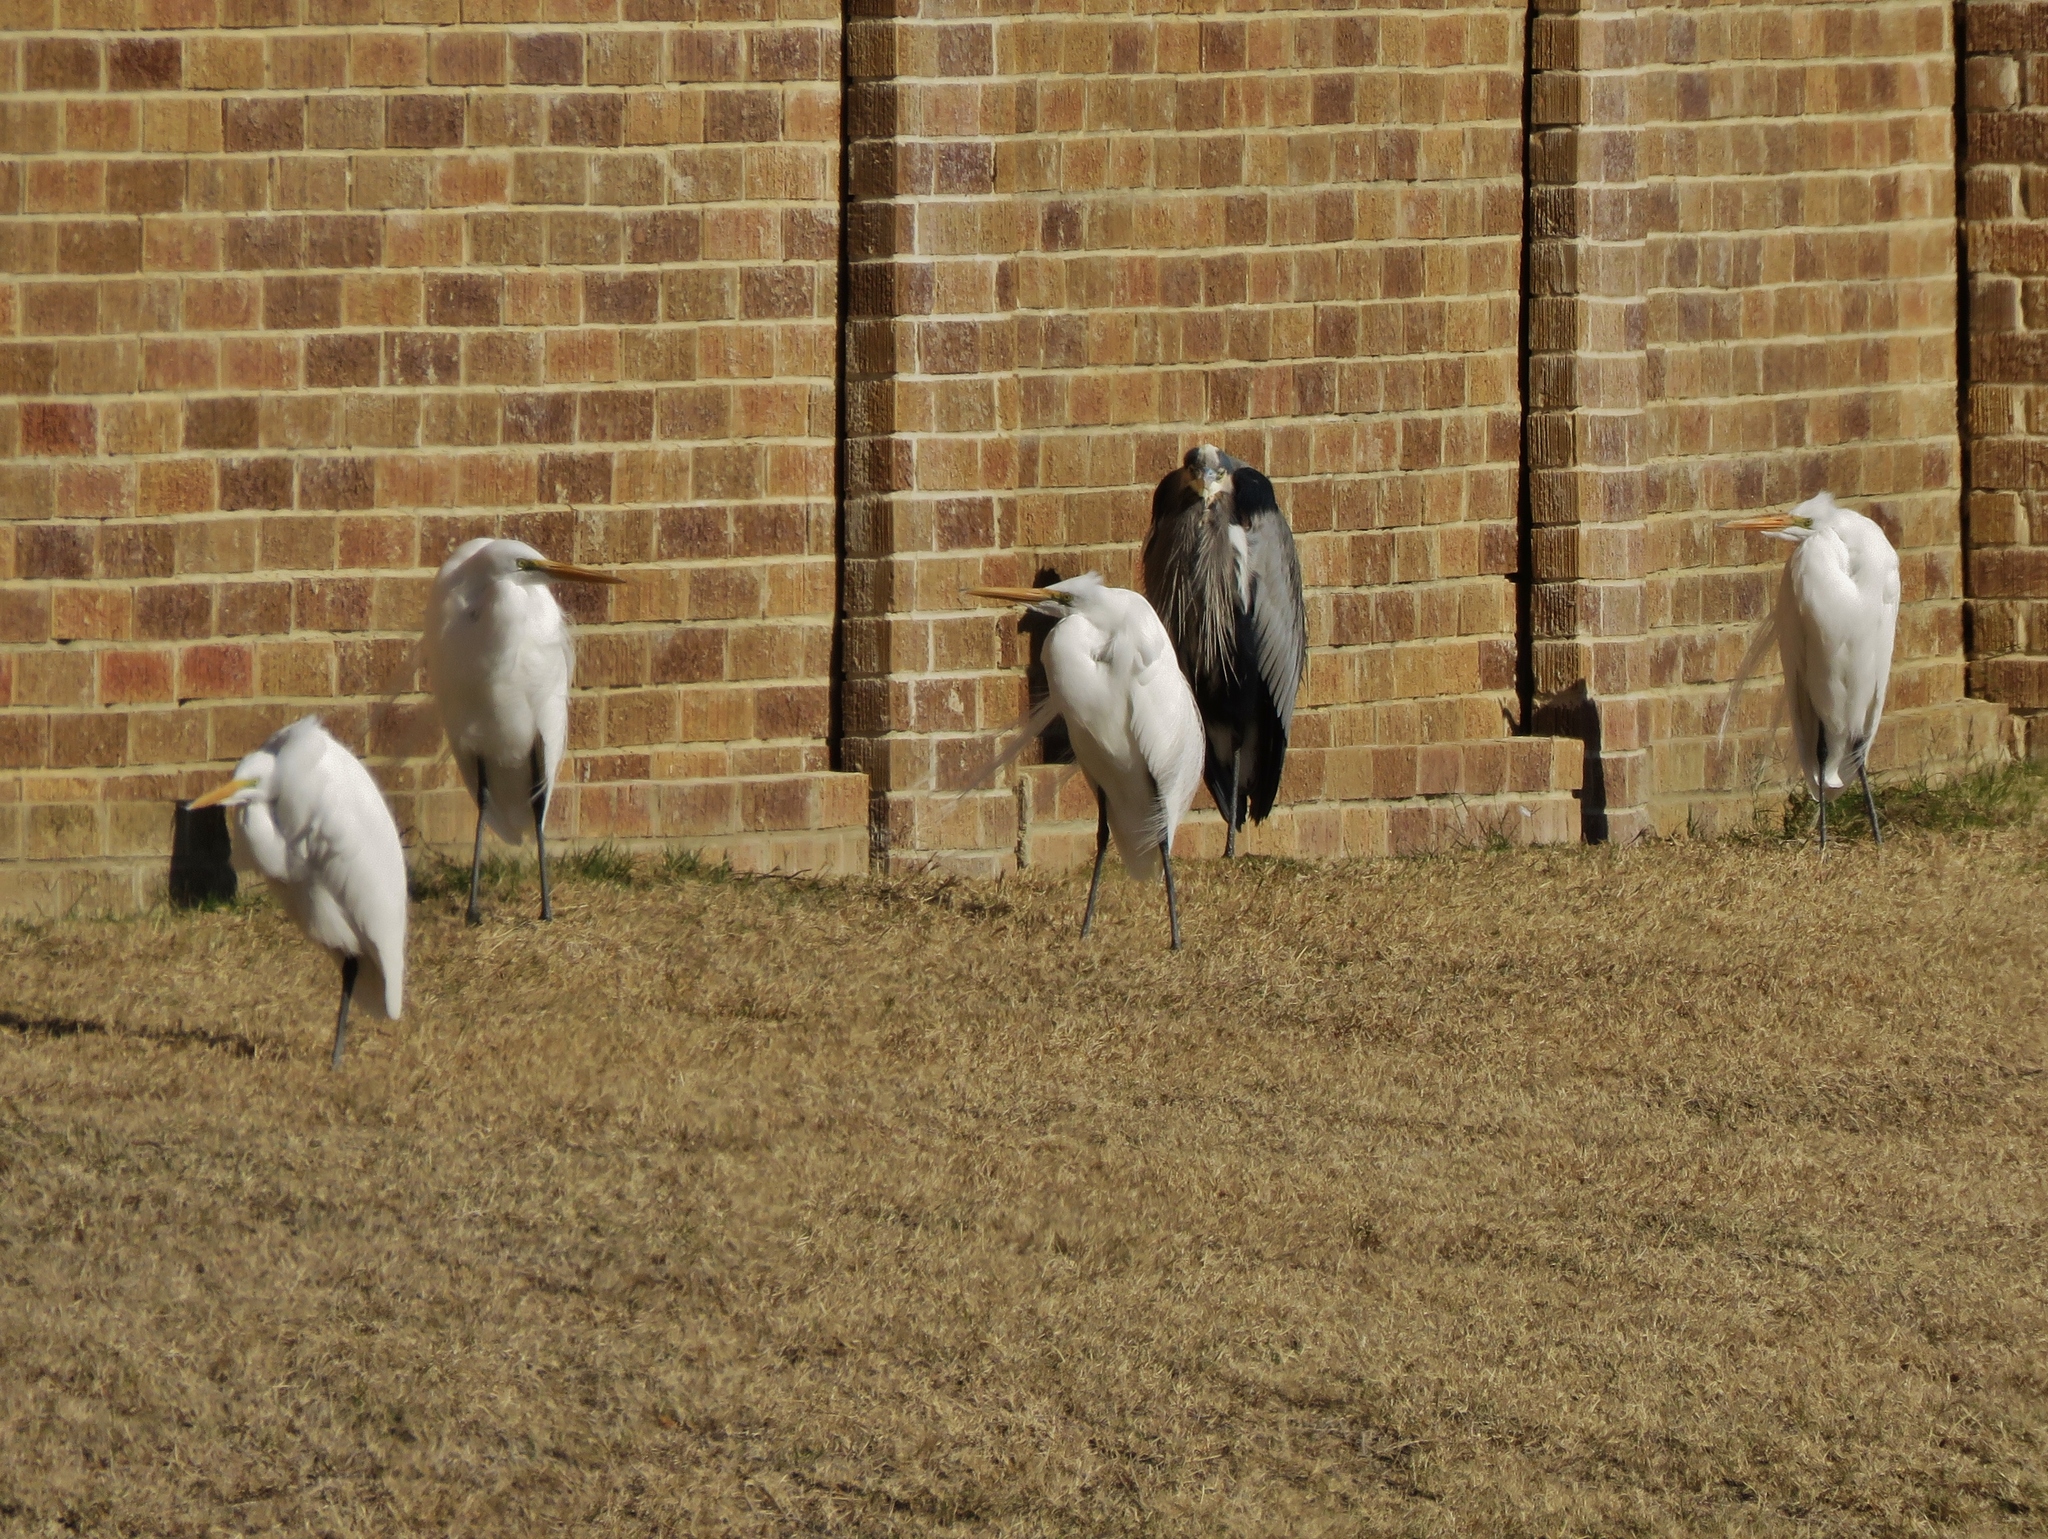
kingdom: Animalia
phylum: Chordata
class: Aves
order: Pelecaniformes
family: Ardeidae
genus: Ardea
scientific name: Ardea herodias
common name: Great blue heron
